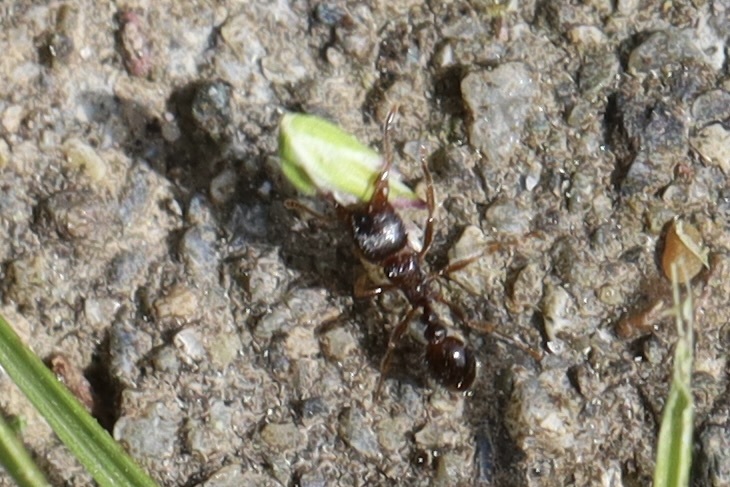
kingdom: Animalia
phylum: Arthropoda
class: Insecta
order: Hymenoptera
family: Formicidae
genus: Tetramorium
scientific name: Tetramorium immigrans
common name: Pavement ant
